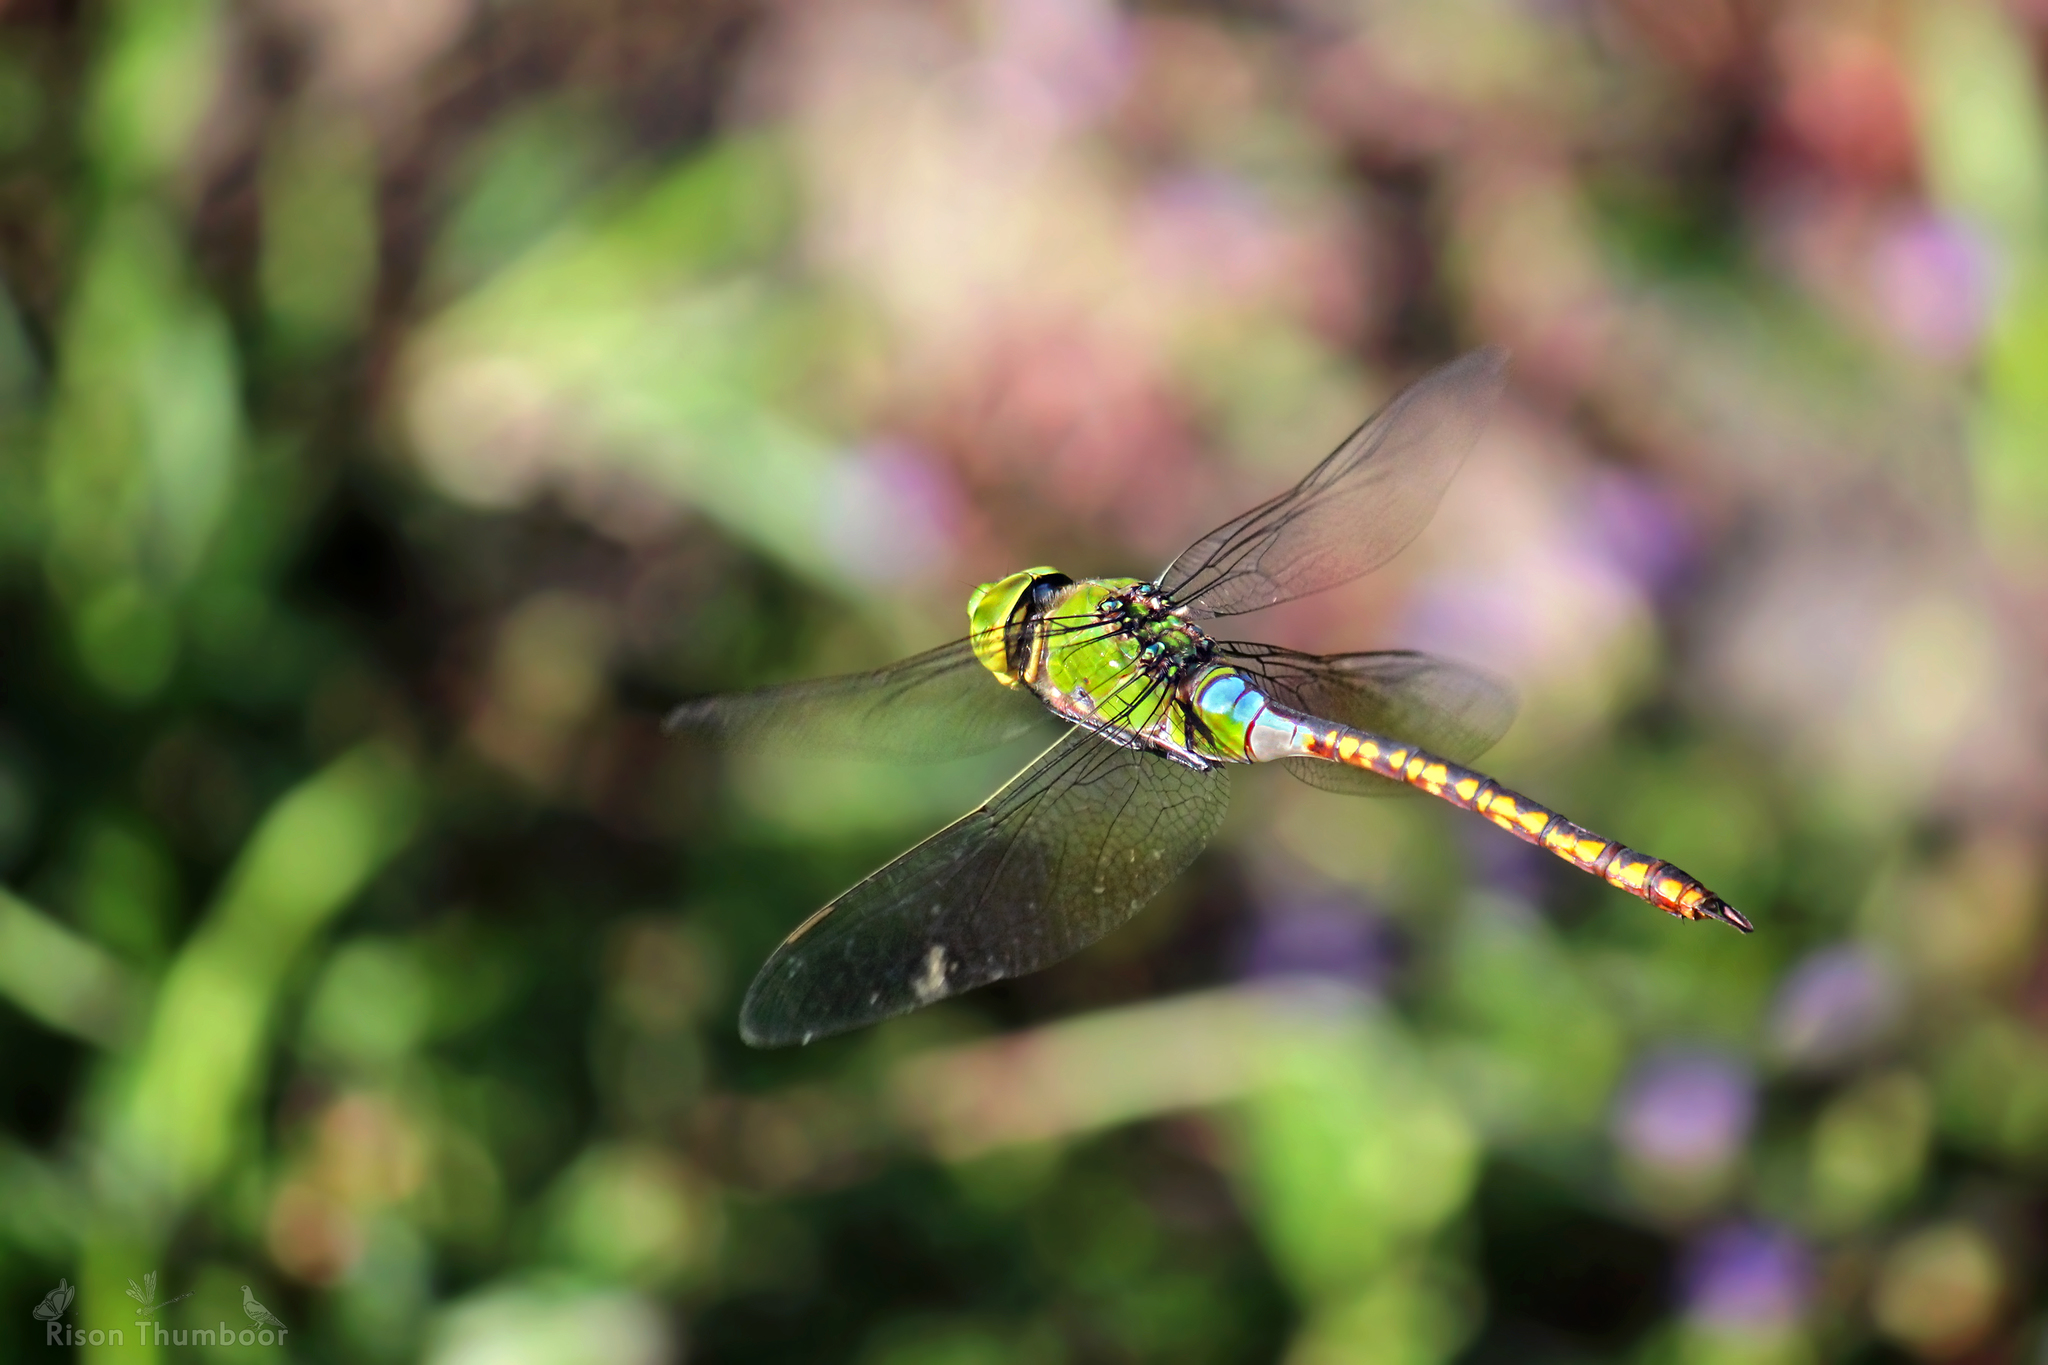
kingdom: Animalia
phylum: Arthropoda
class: Insecta
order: Odonata
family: Aeshnidae
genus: Anax
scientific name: Anax indicus
